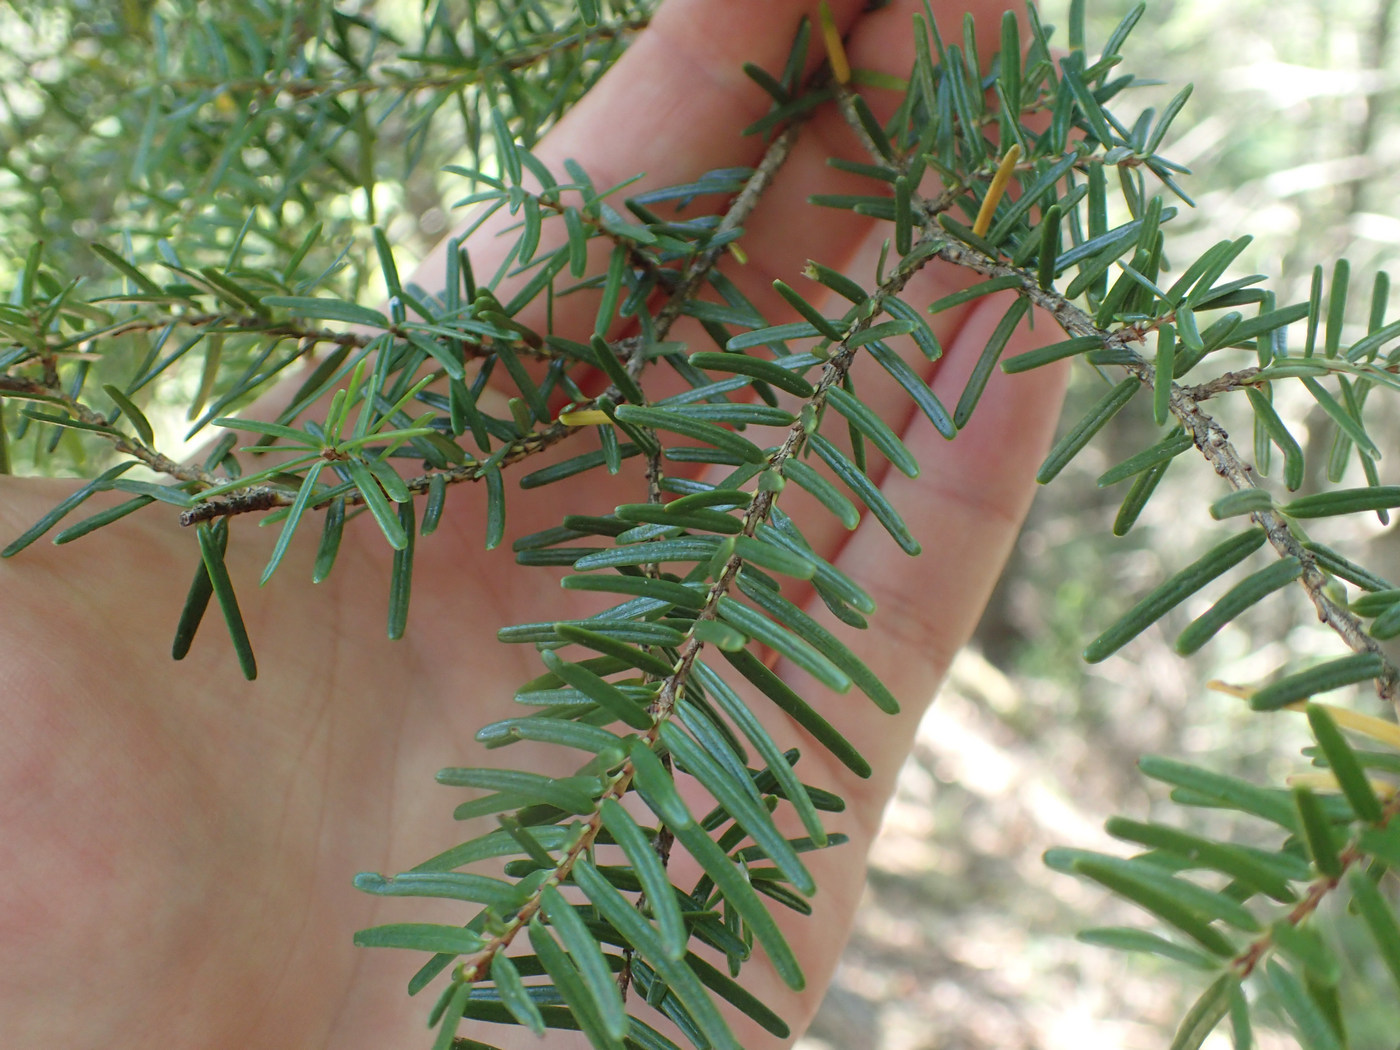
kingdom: Plantae
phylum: Tracheophyta
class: Pinopsida
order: Pinales
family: Pinaceae
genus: Tsuga
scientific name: Tsuga caroliniana
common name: Carolina hemlock
